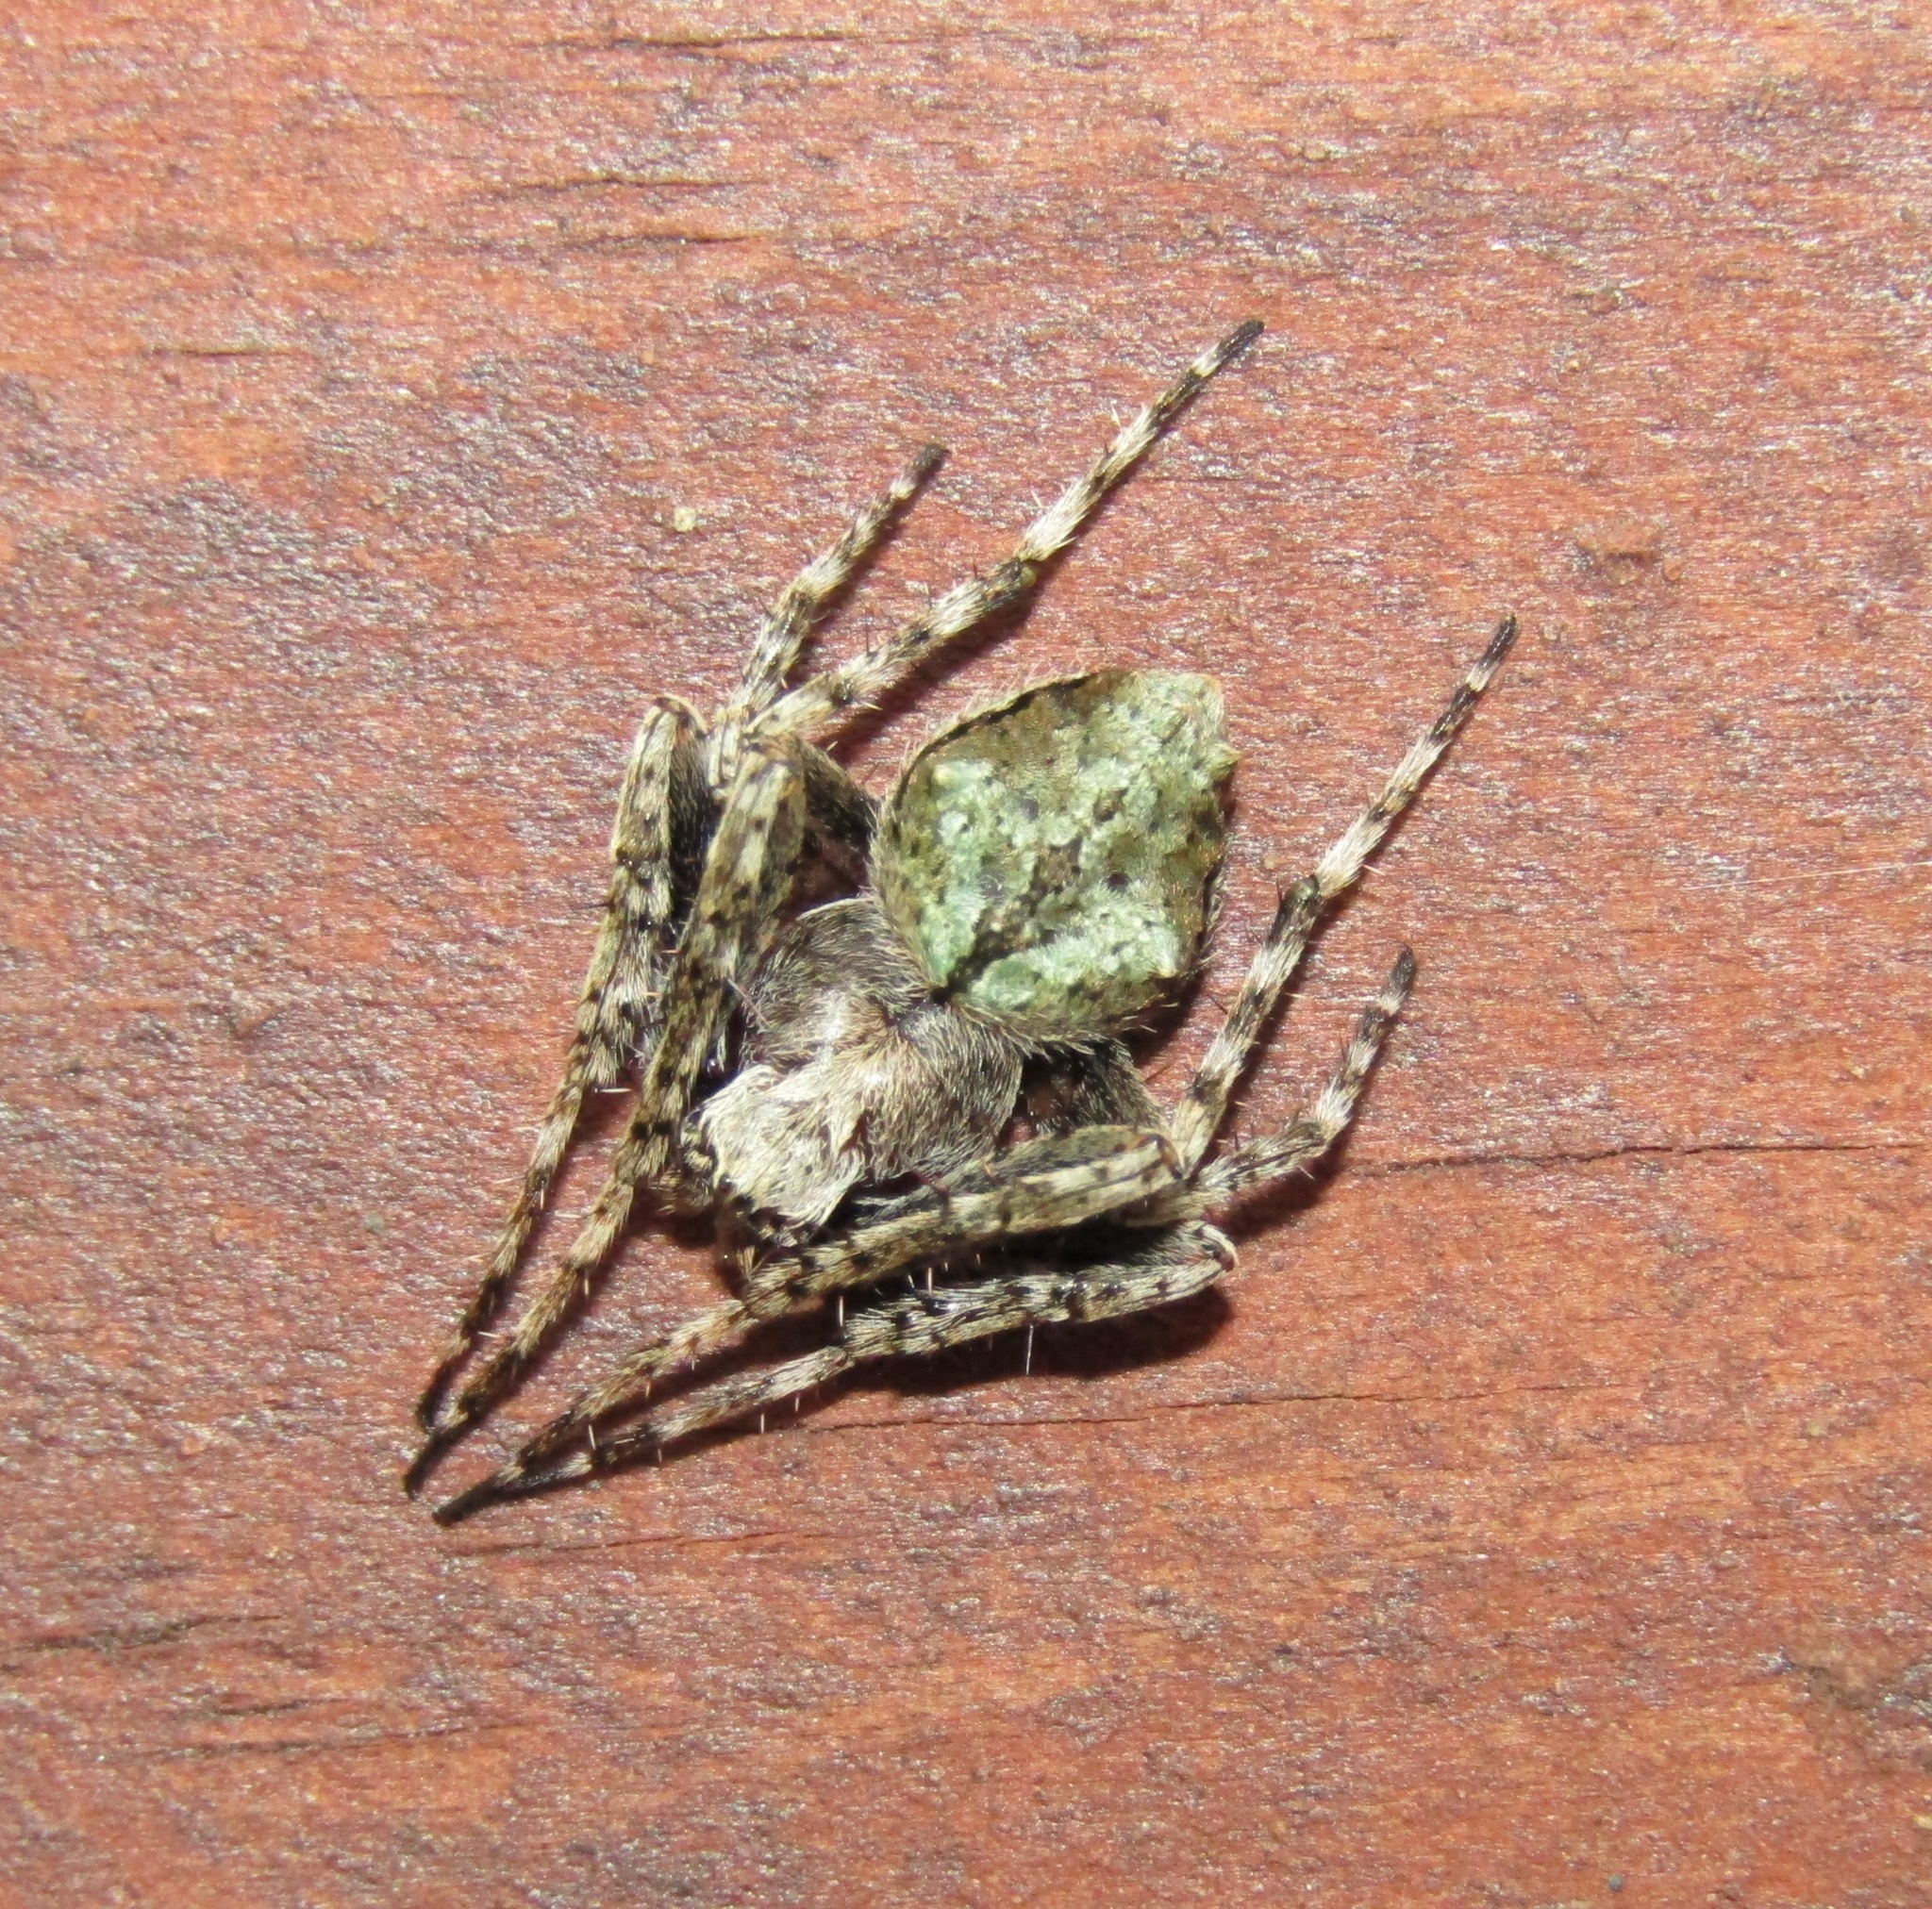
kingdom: Animalia
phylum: Arthropoda
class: Arachnida
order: Araneae
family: Araneidae
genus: Eriophora
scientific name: Eriophora pustulosa
